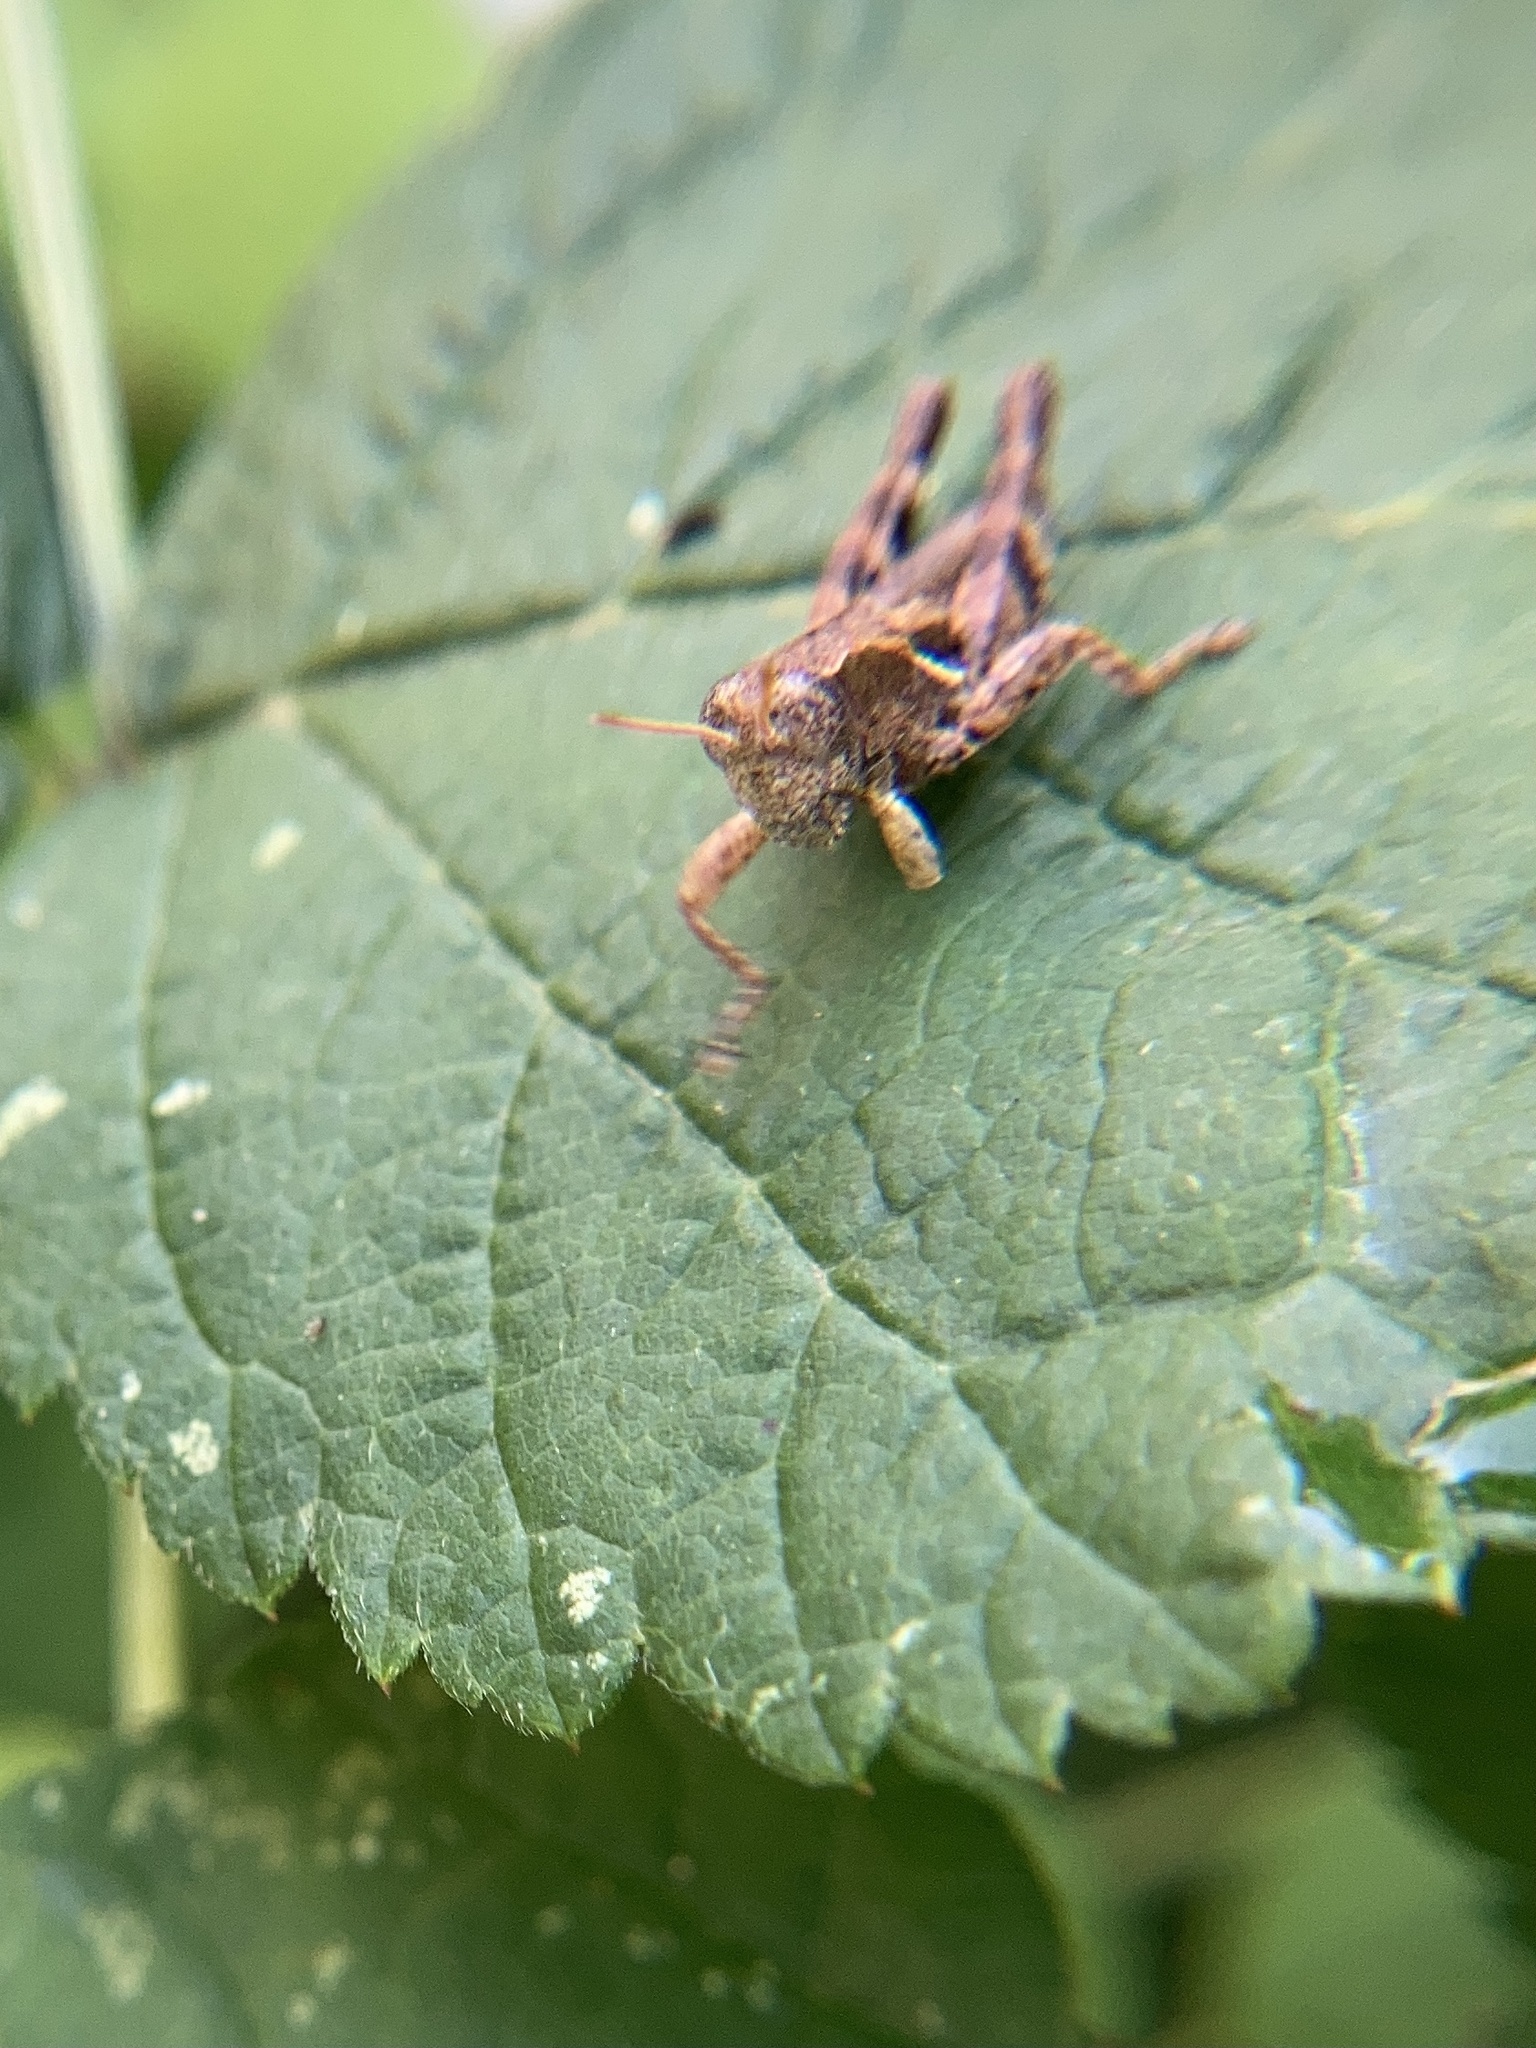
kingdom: Animalia
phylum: Arthropoda
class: Insecta
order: Orthoptera
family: Acrididae
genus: Pezotettix
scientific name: Pezotettix giornae
